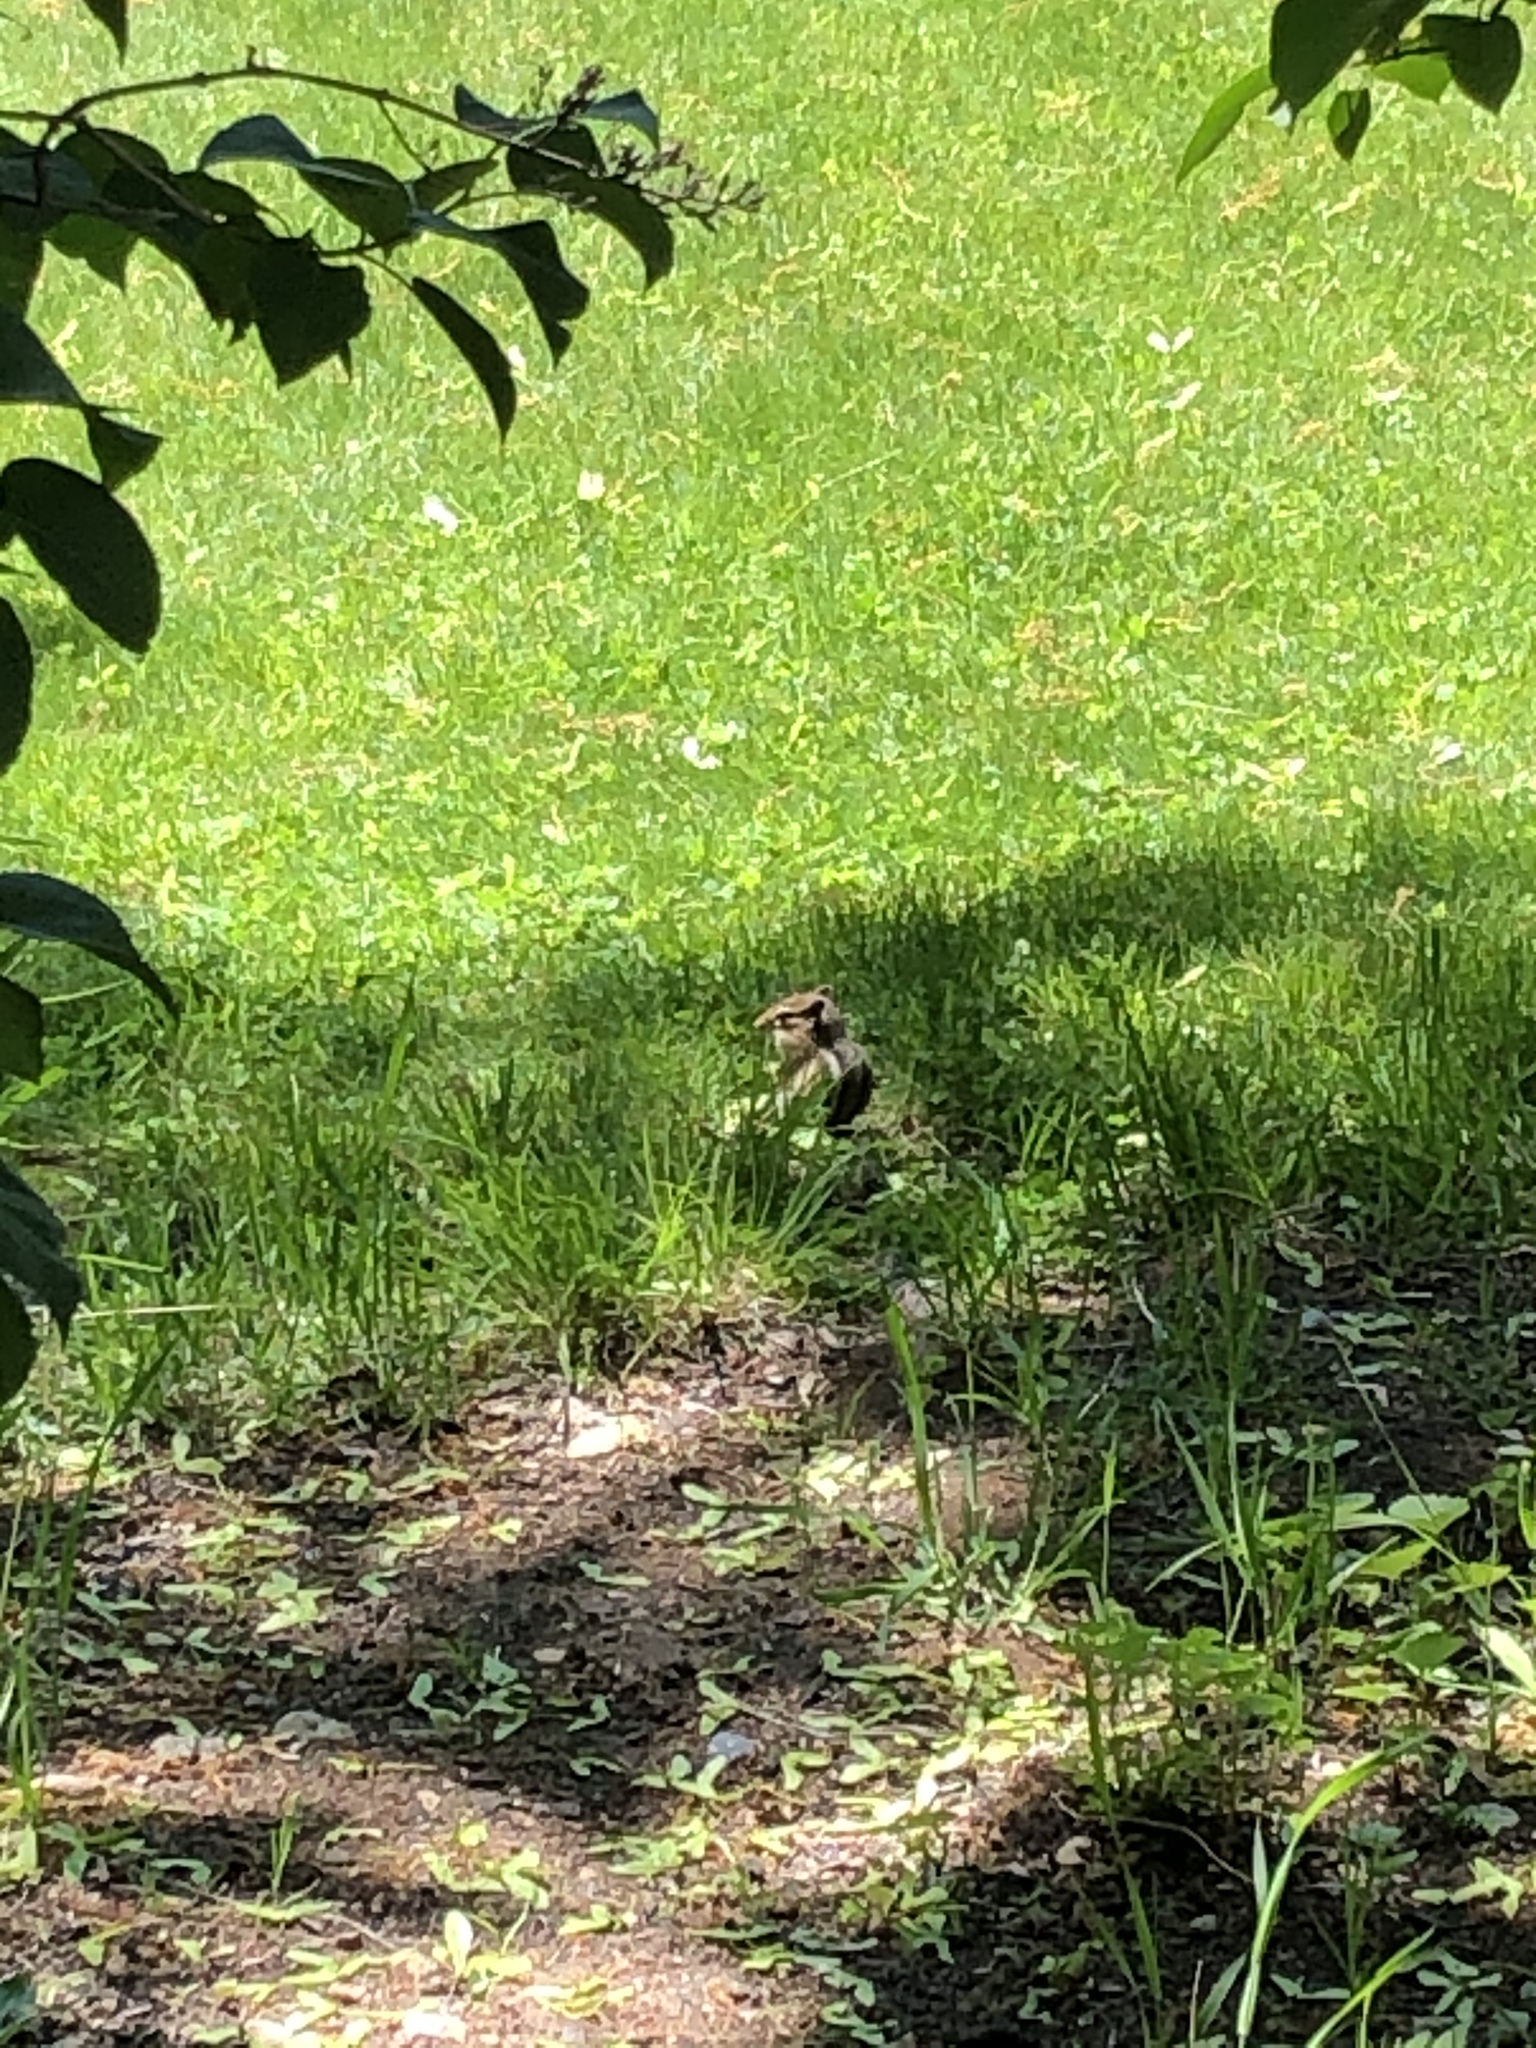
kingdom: Animalia
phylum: Chordata
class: Mammalia
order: Rodentia
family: Sciuridae
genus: Tamias
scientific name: Tamias striatus
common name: Eastern chipmunk
